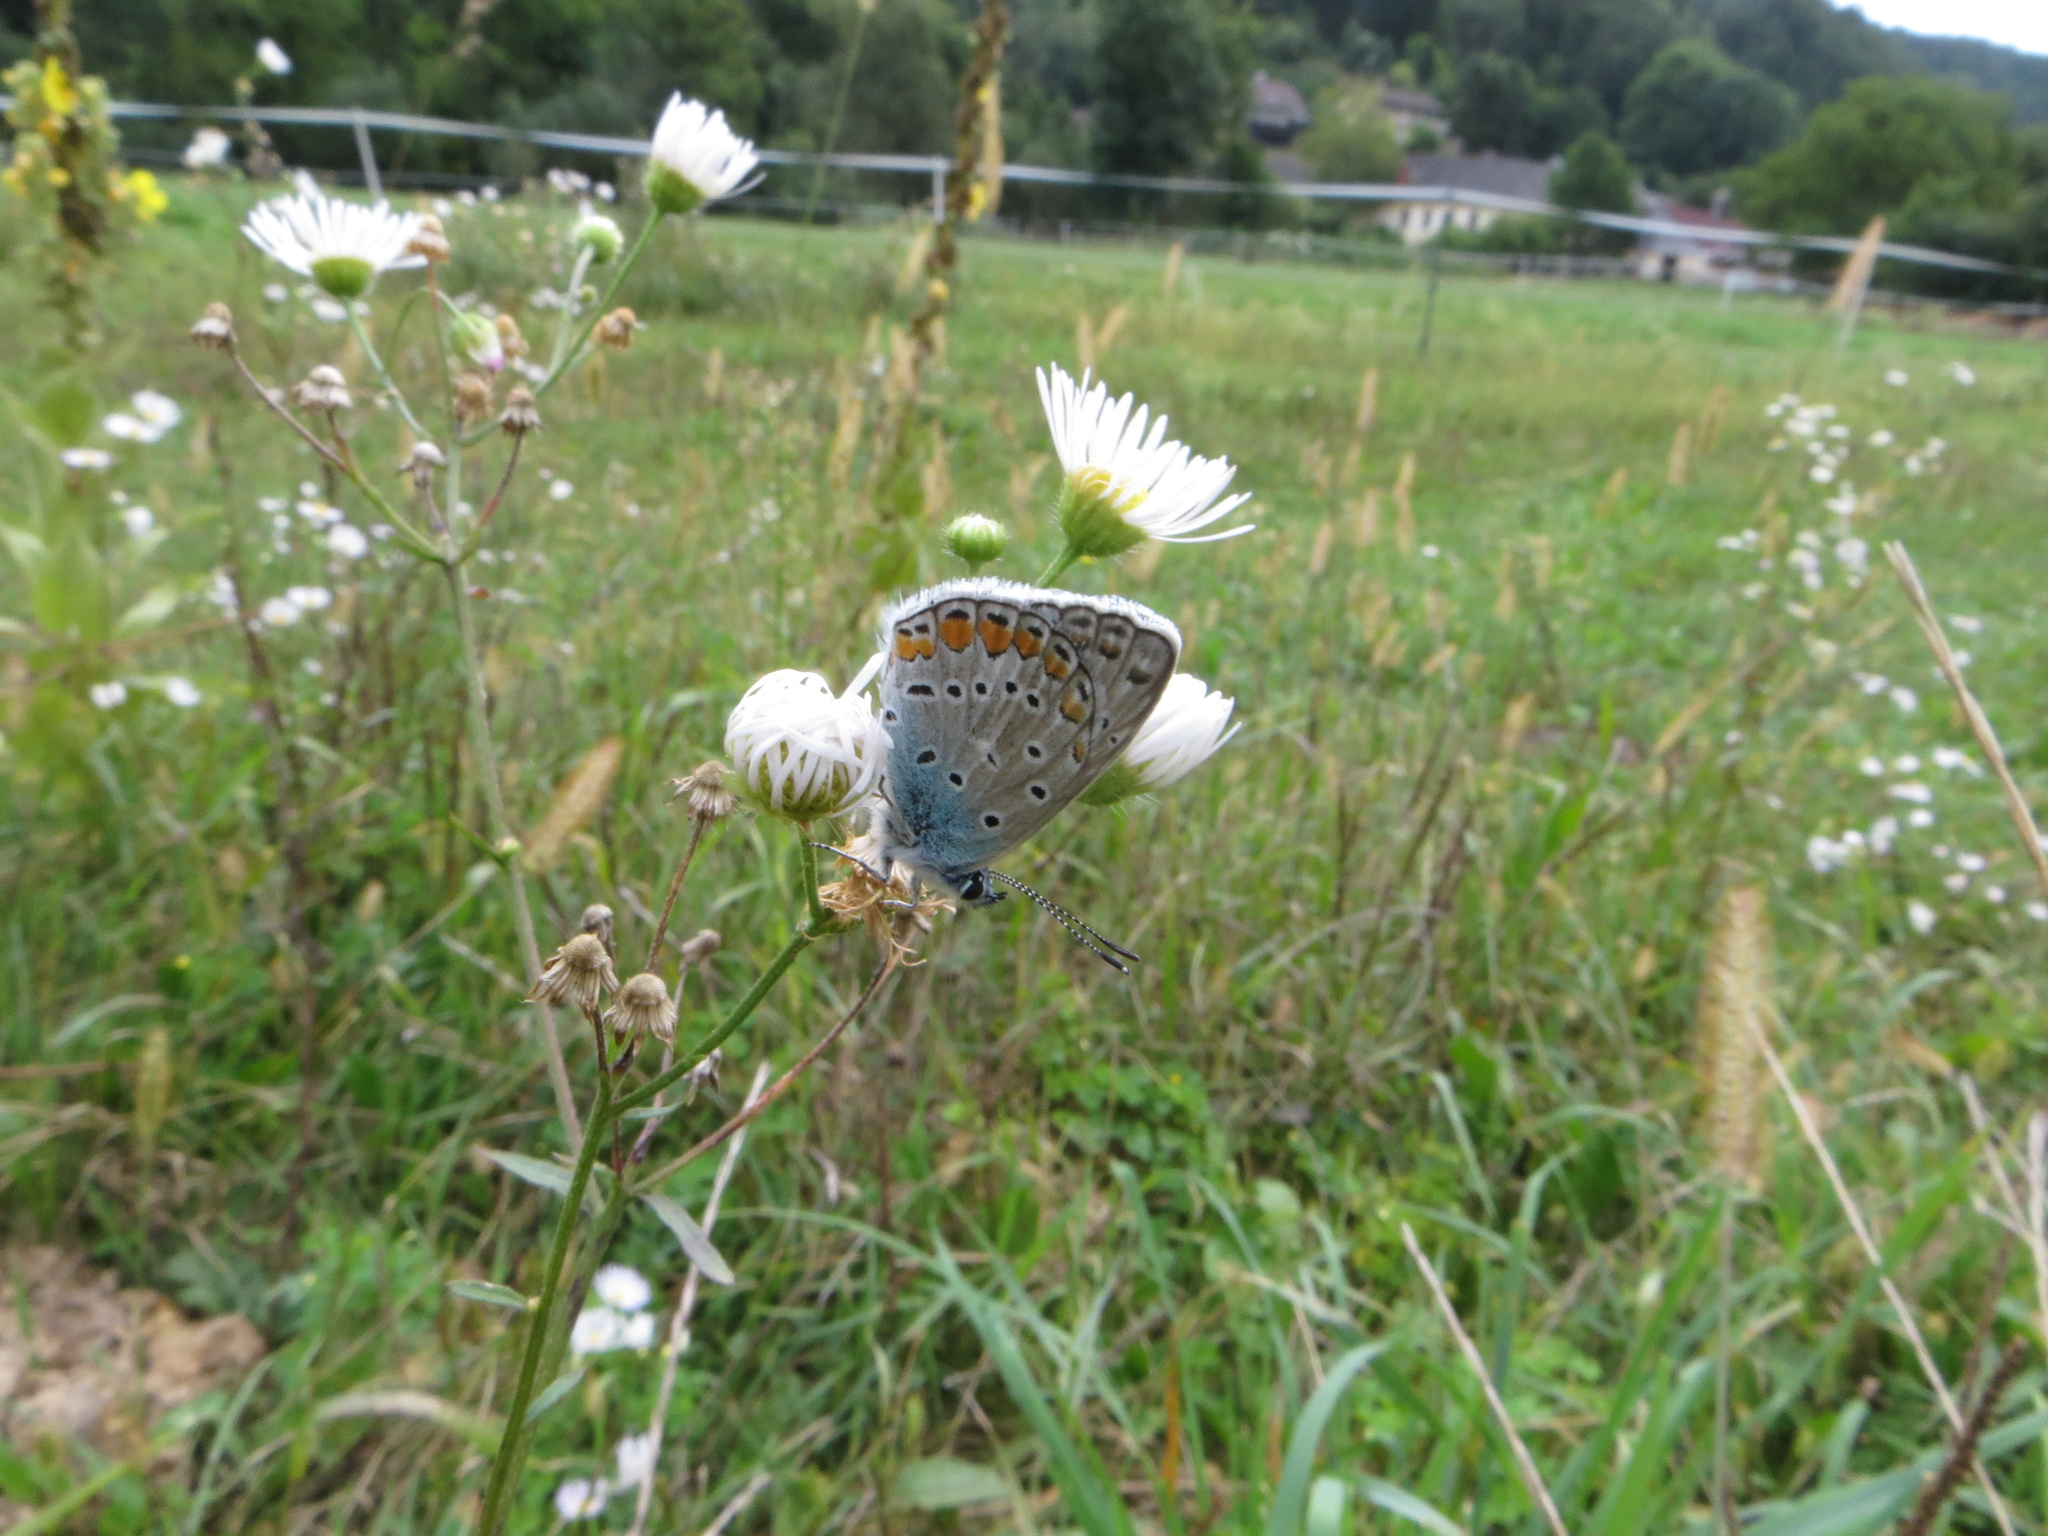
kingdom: Animalia
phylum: Arthropoda
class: Insecta
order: Lepidoptera
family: Lycaenidae
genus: Polyommatus
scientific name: Polyommatus icarus
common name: Common blue
